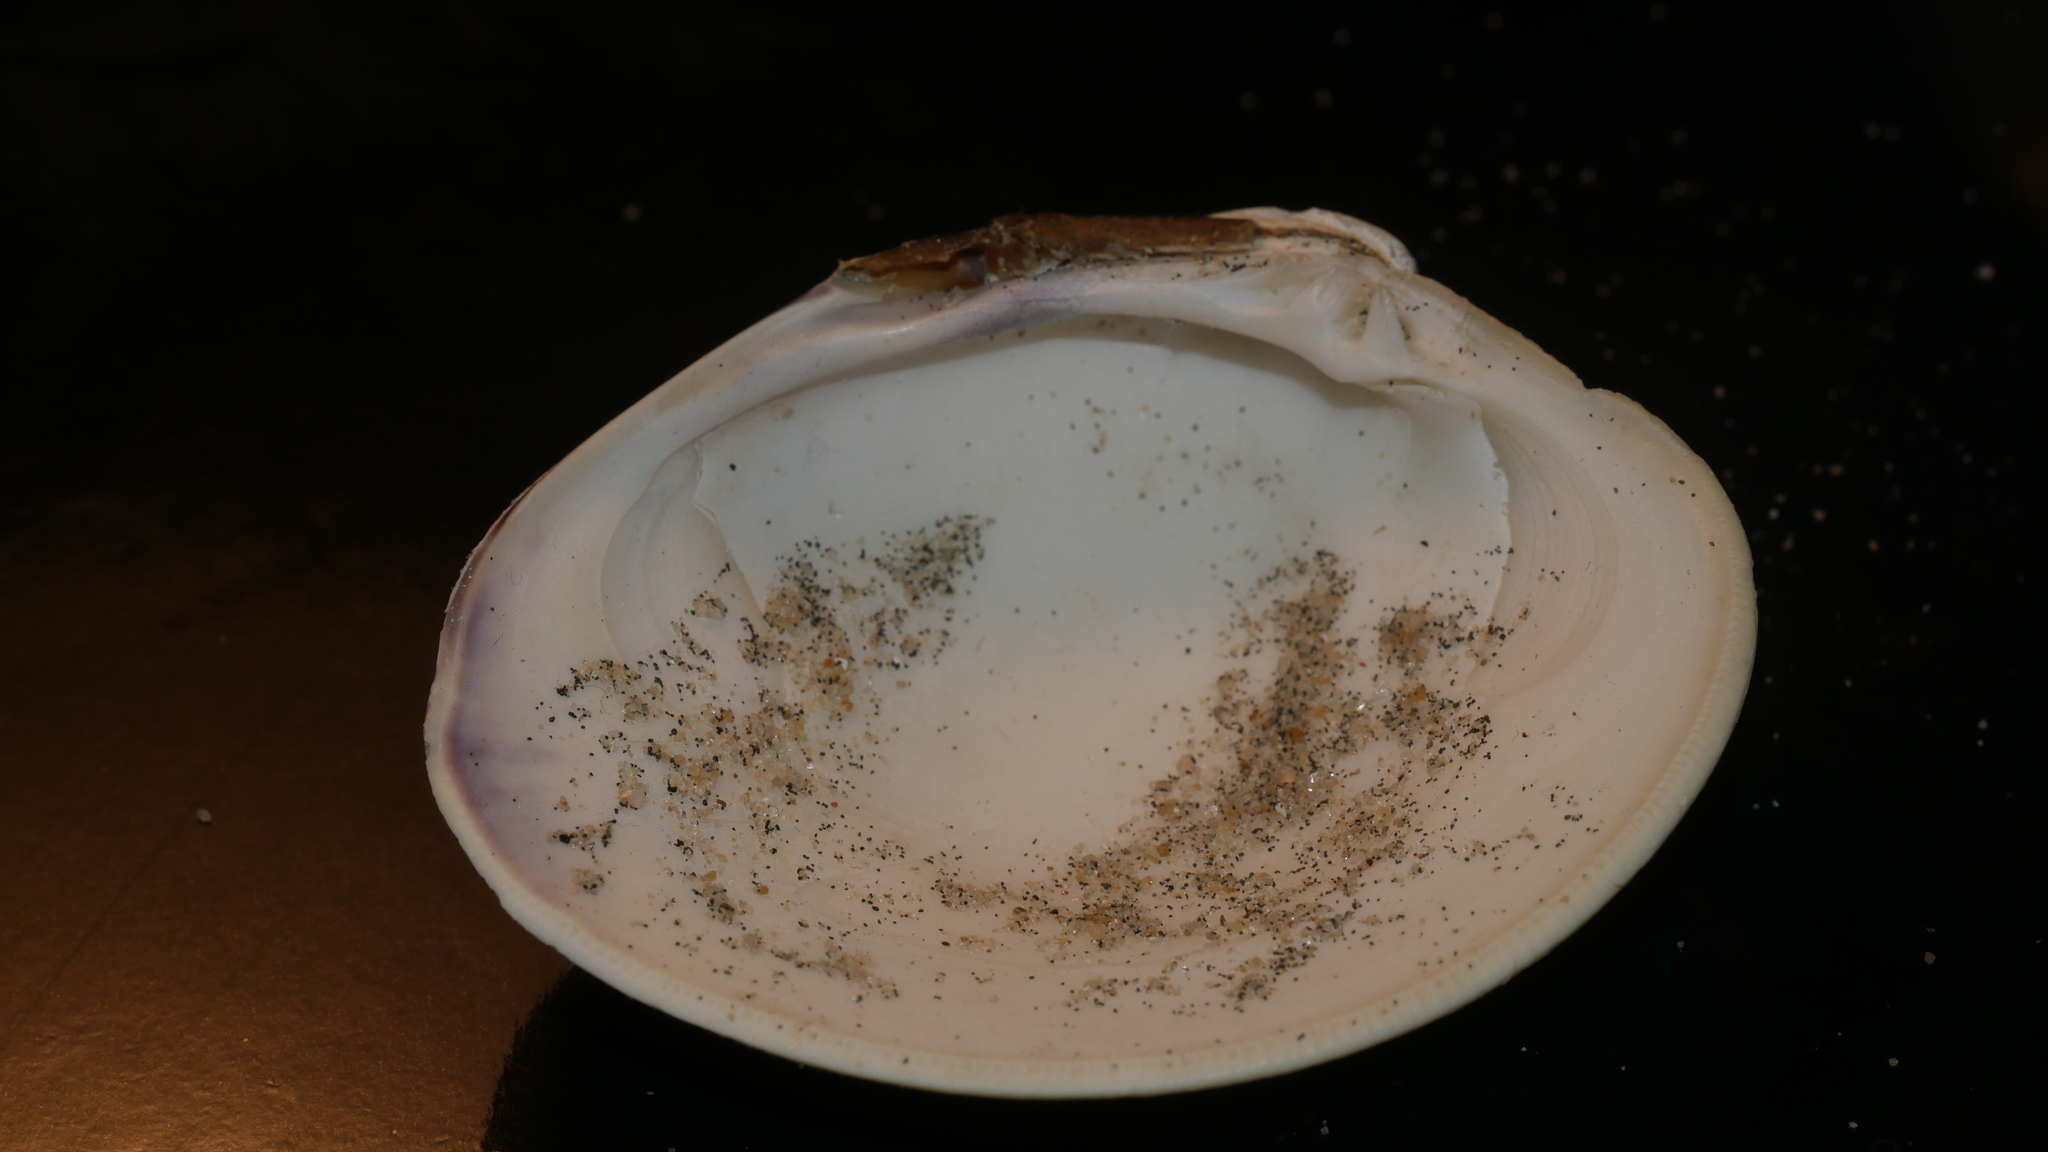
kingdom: Animalia
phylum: Mollusca
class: Bivalvia
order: Venerida
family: Veneridae
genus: Mercenaria
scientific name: Mercenaria mercenaria
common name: American hard-shelled clam
